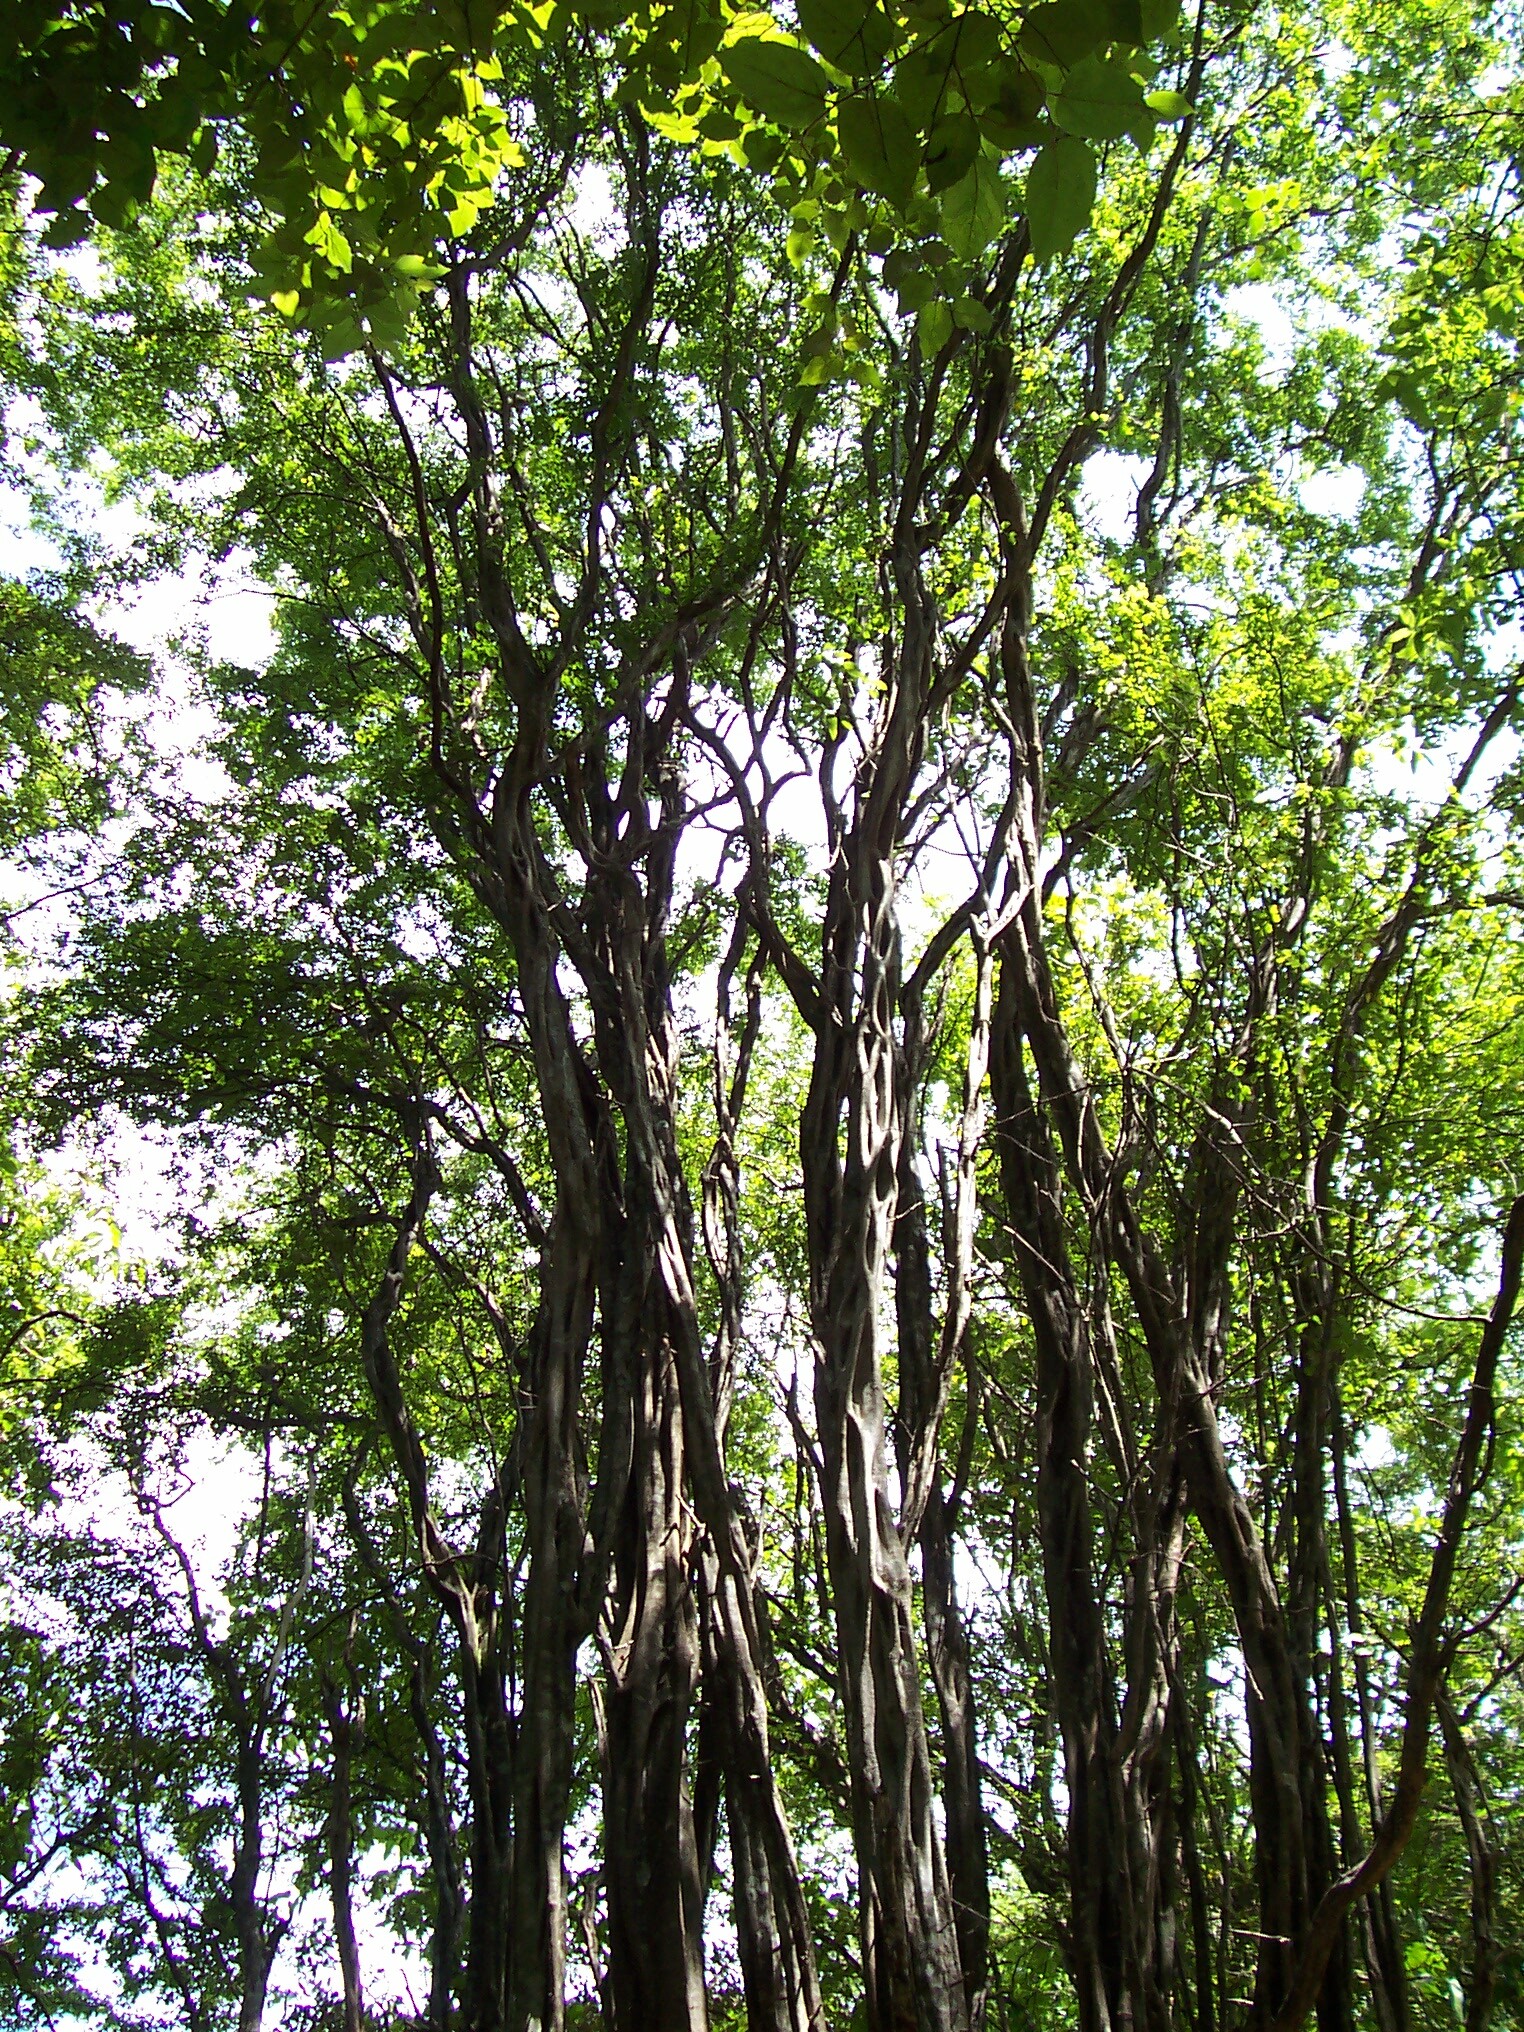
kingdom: Plantae
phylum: Tracheophyta
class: Magnoliopsida
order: Fabales
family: Fabaceae
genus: Haematoxylum
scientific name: Haematoxylum brasiletto
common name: Peachwood
